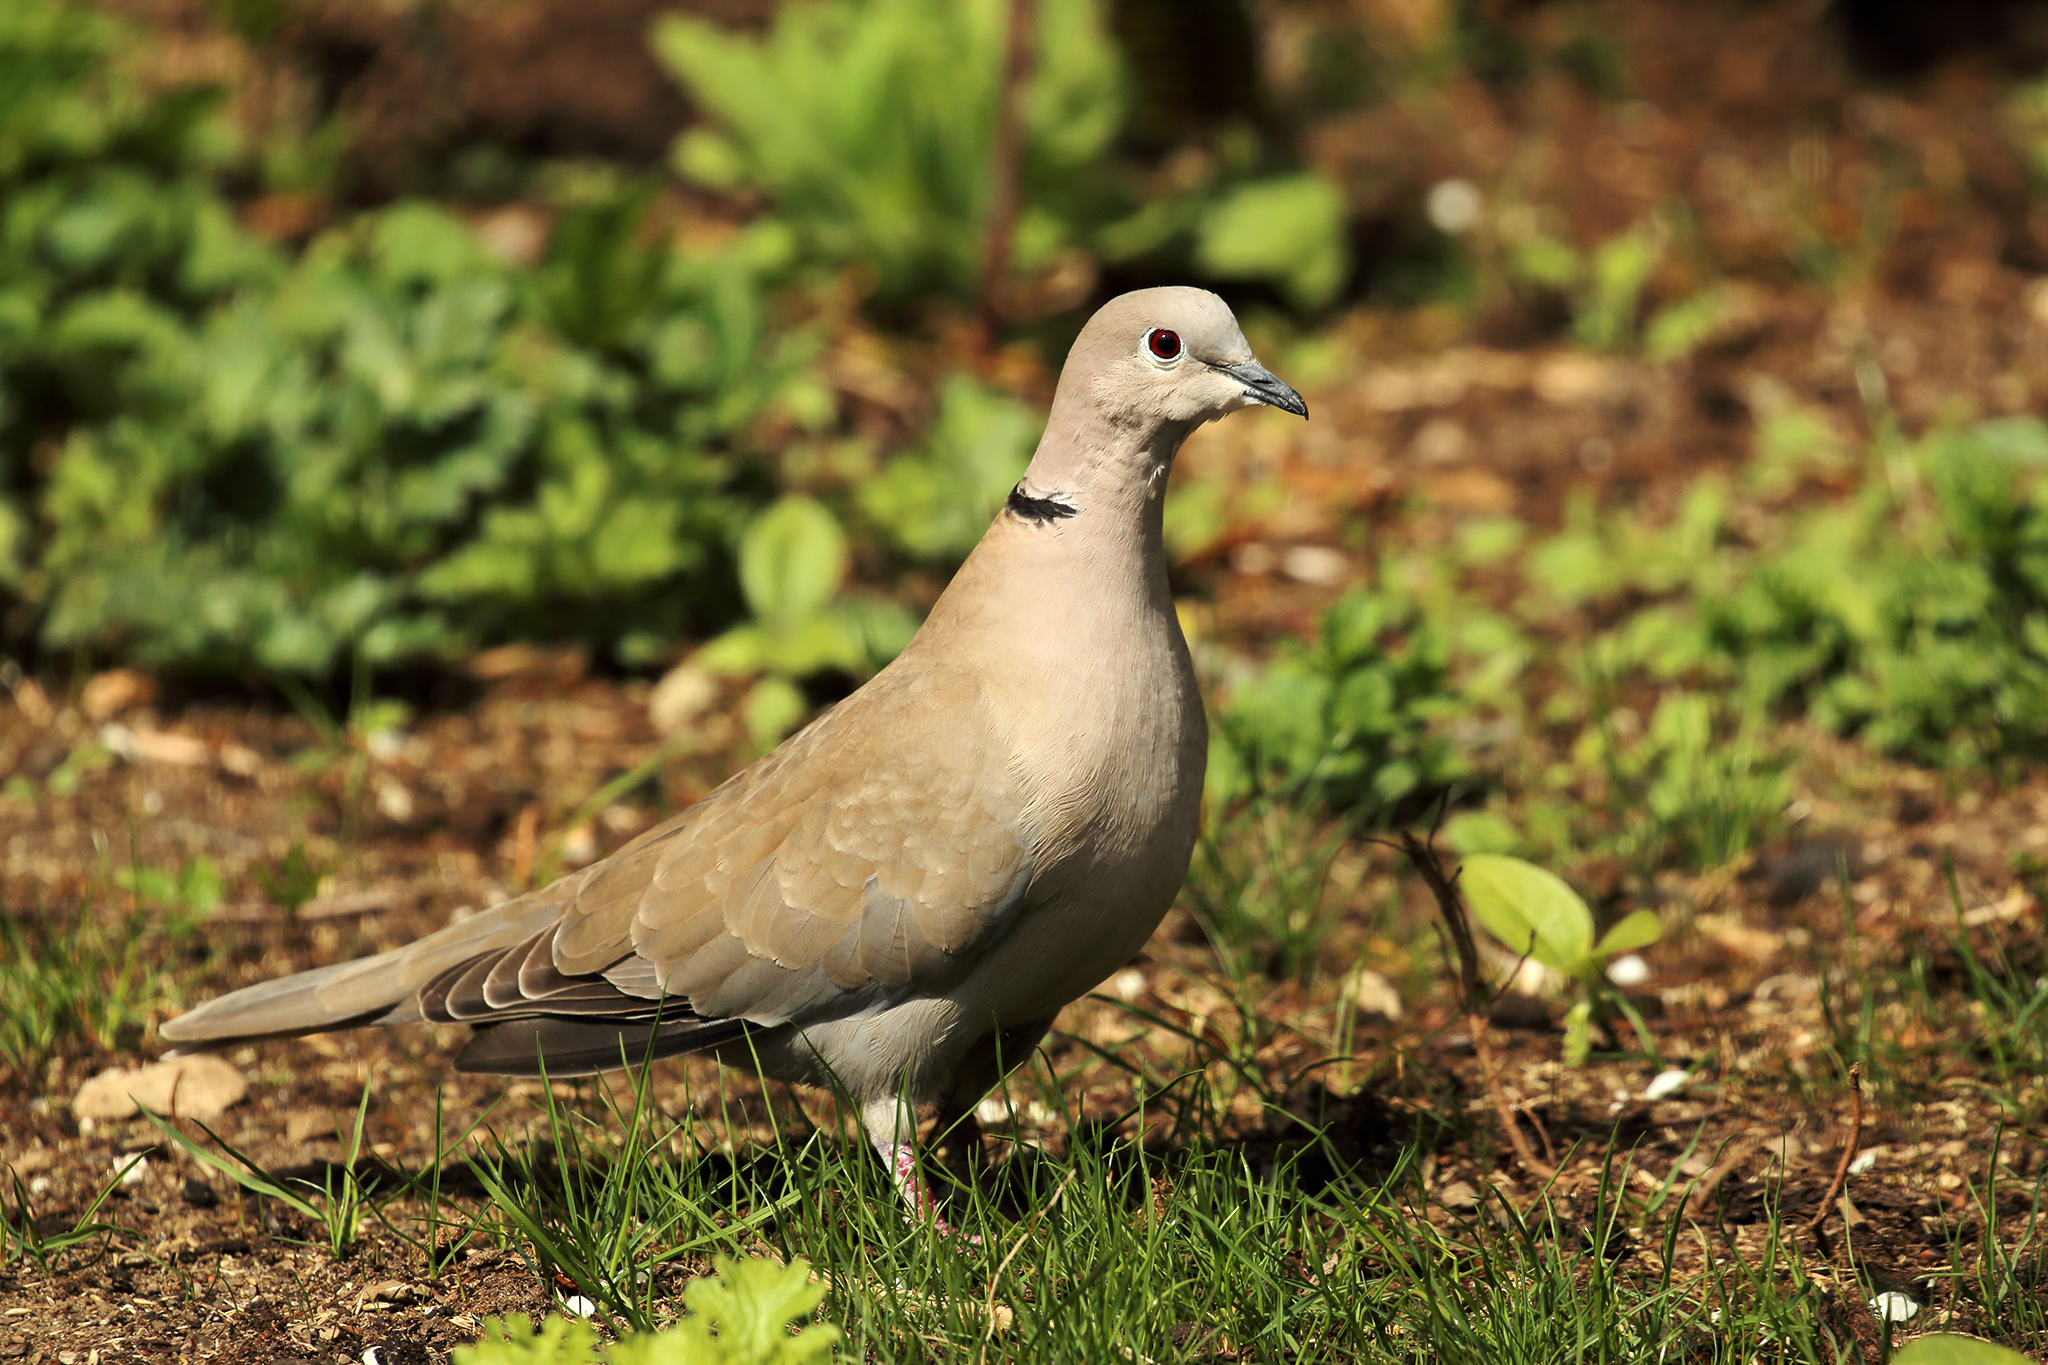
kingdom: Animalia
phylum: Chordata
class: Aves
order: Columbiformes
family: Columbidae
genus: Streptopelia
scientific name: Streptopelia decaocto
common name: Eurasian collared dove
